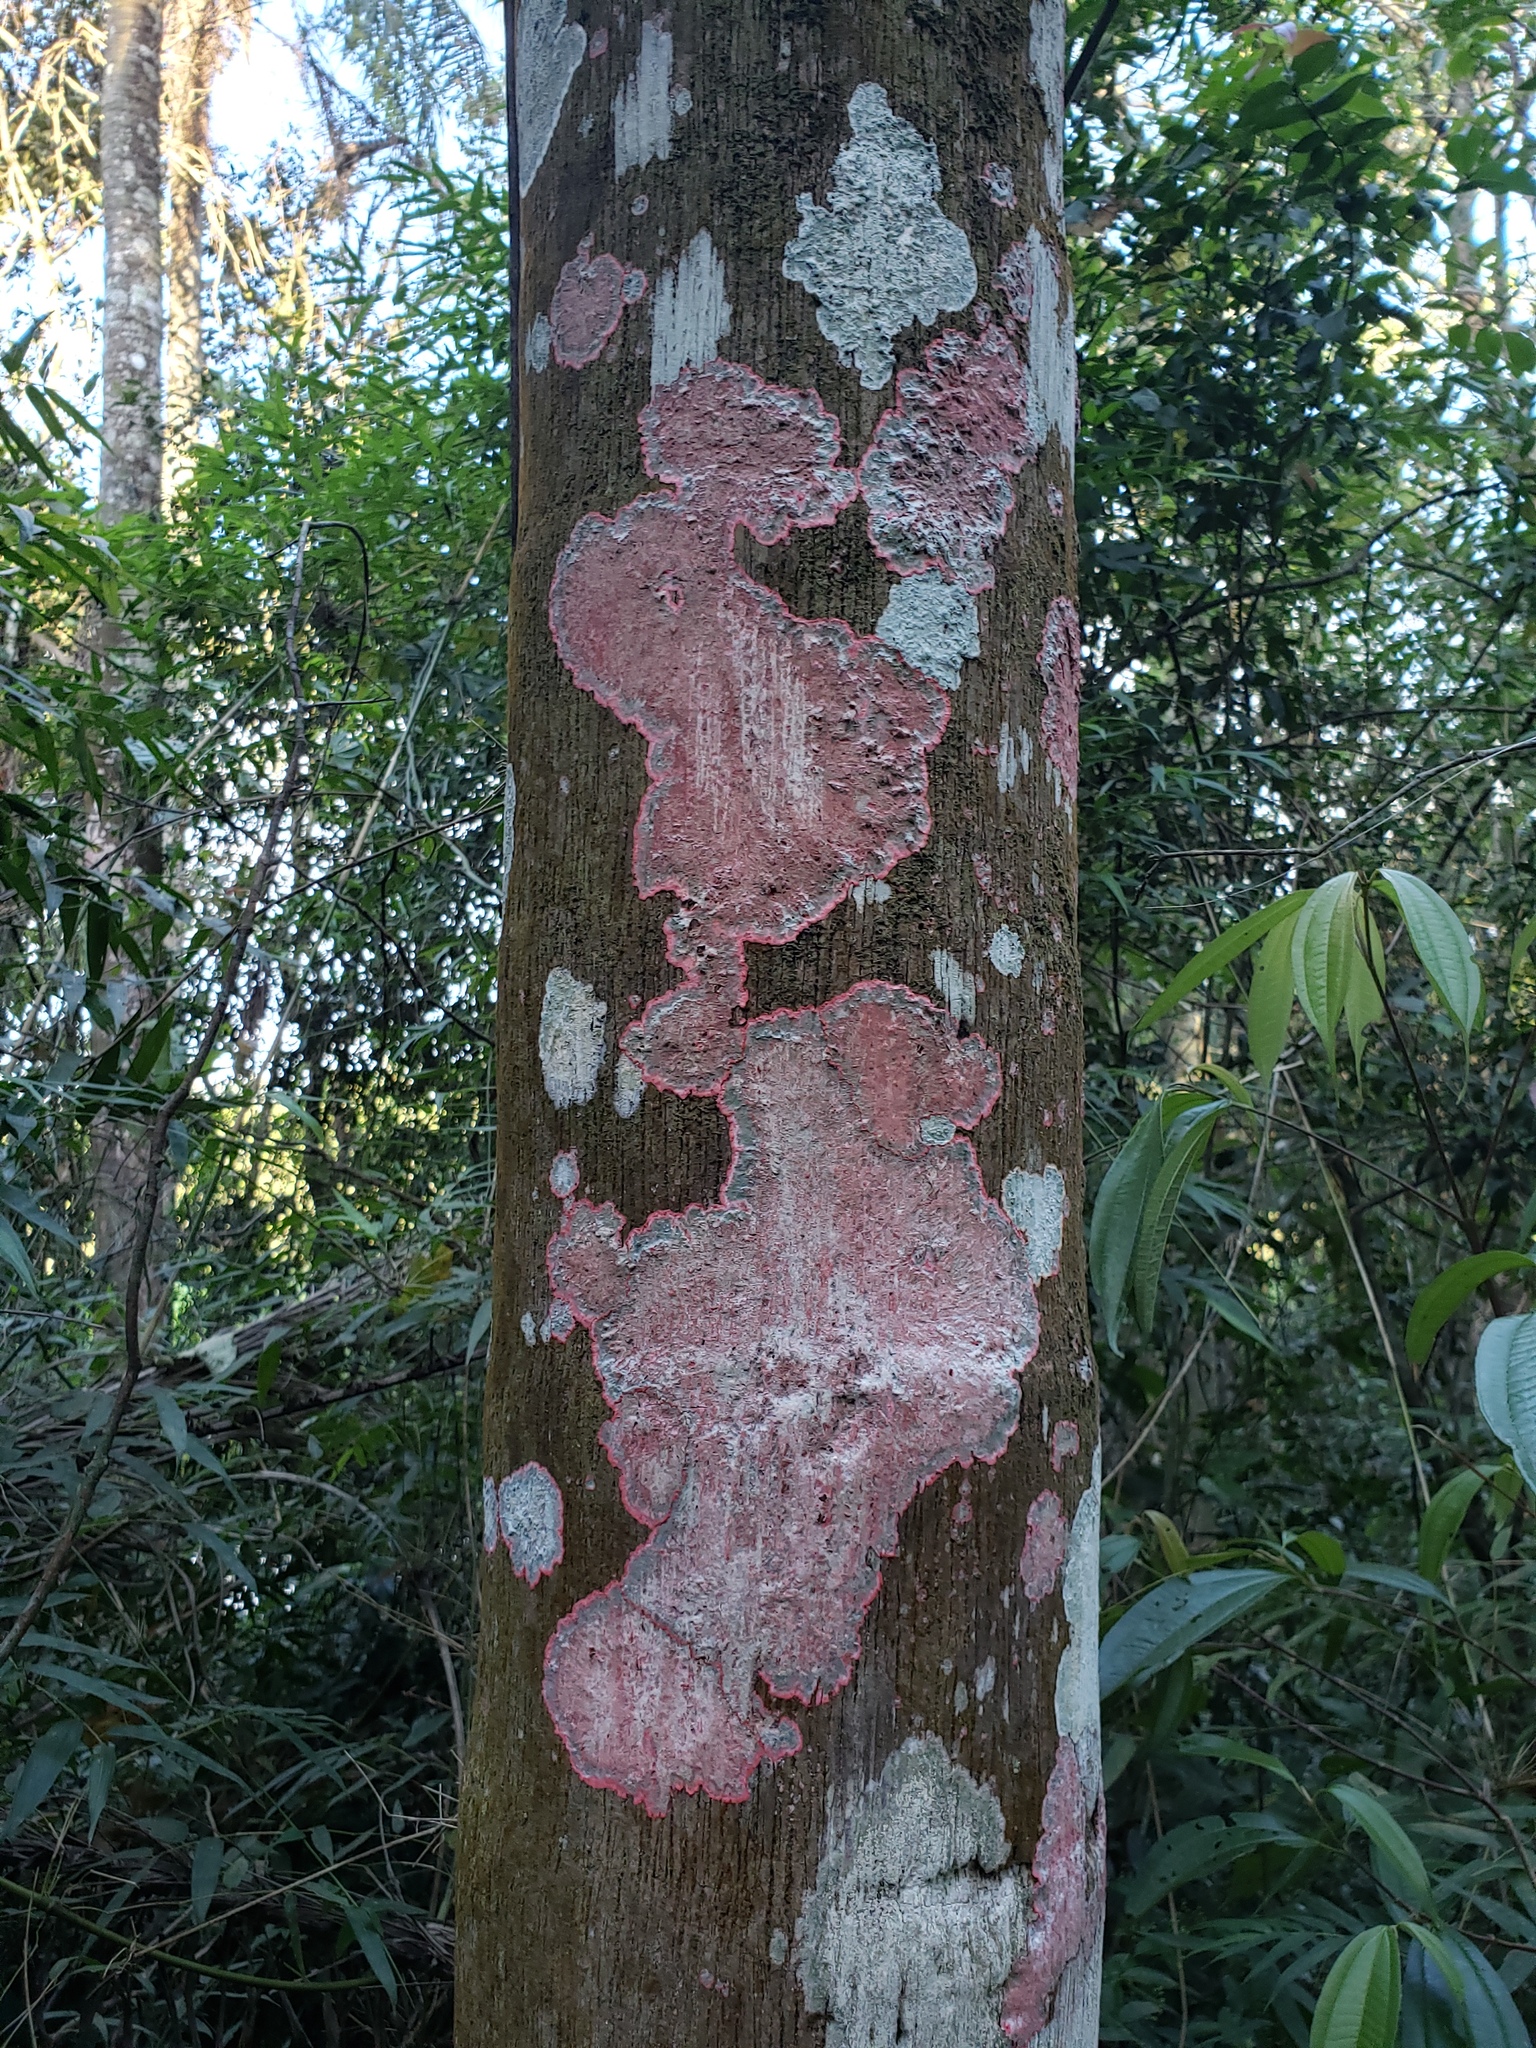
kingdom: Fungi
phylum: Ascomycota
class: Arthoniomycetes
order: Arthoniales
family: Arthoniaceae
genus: Herpothallon
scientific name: Herpothallon rubrocinctum
